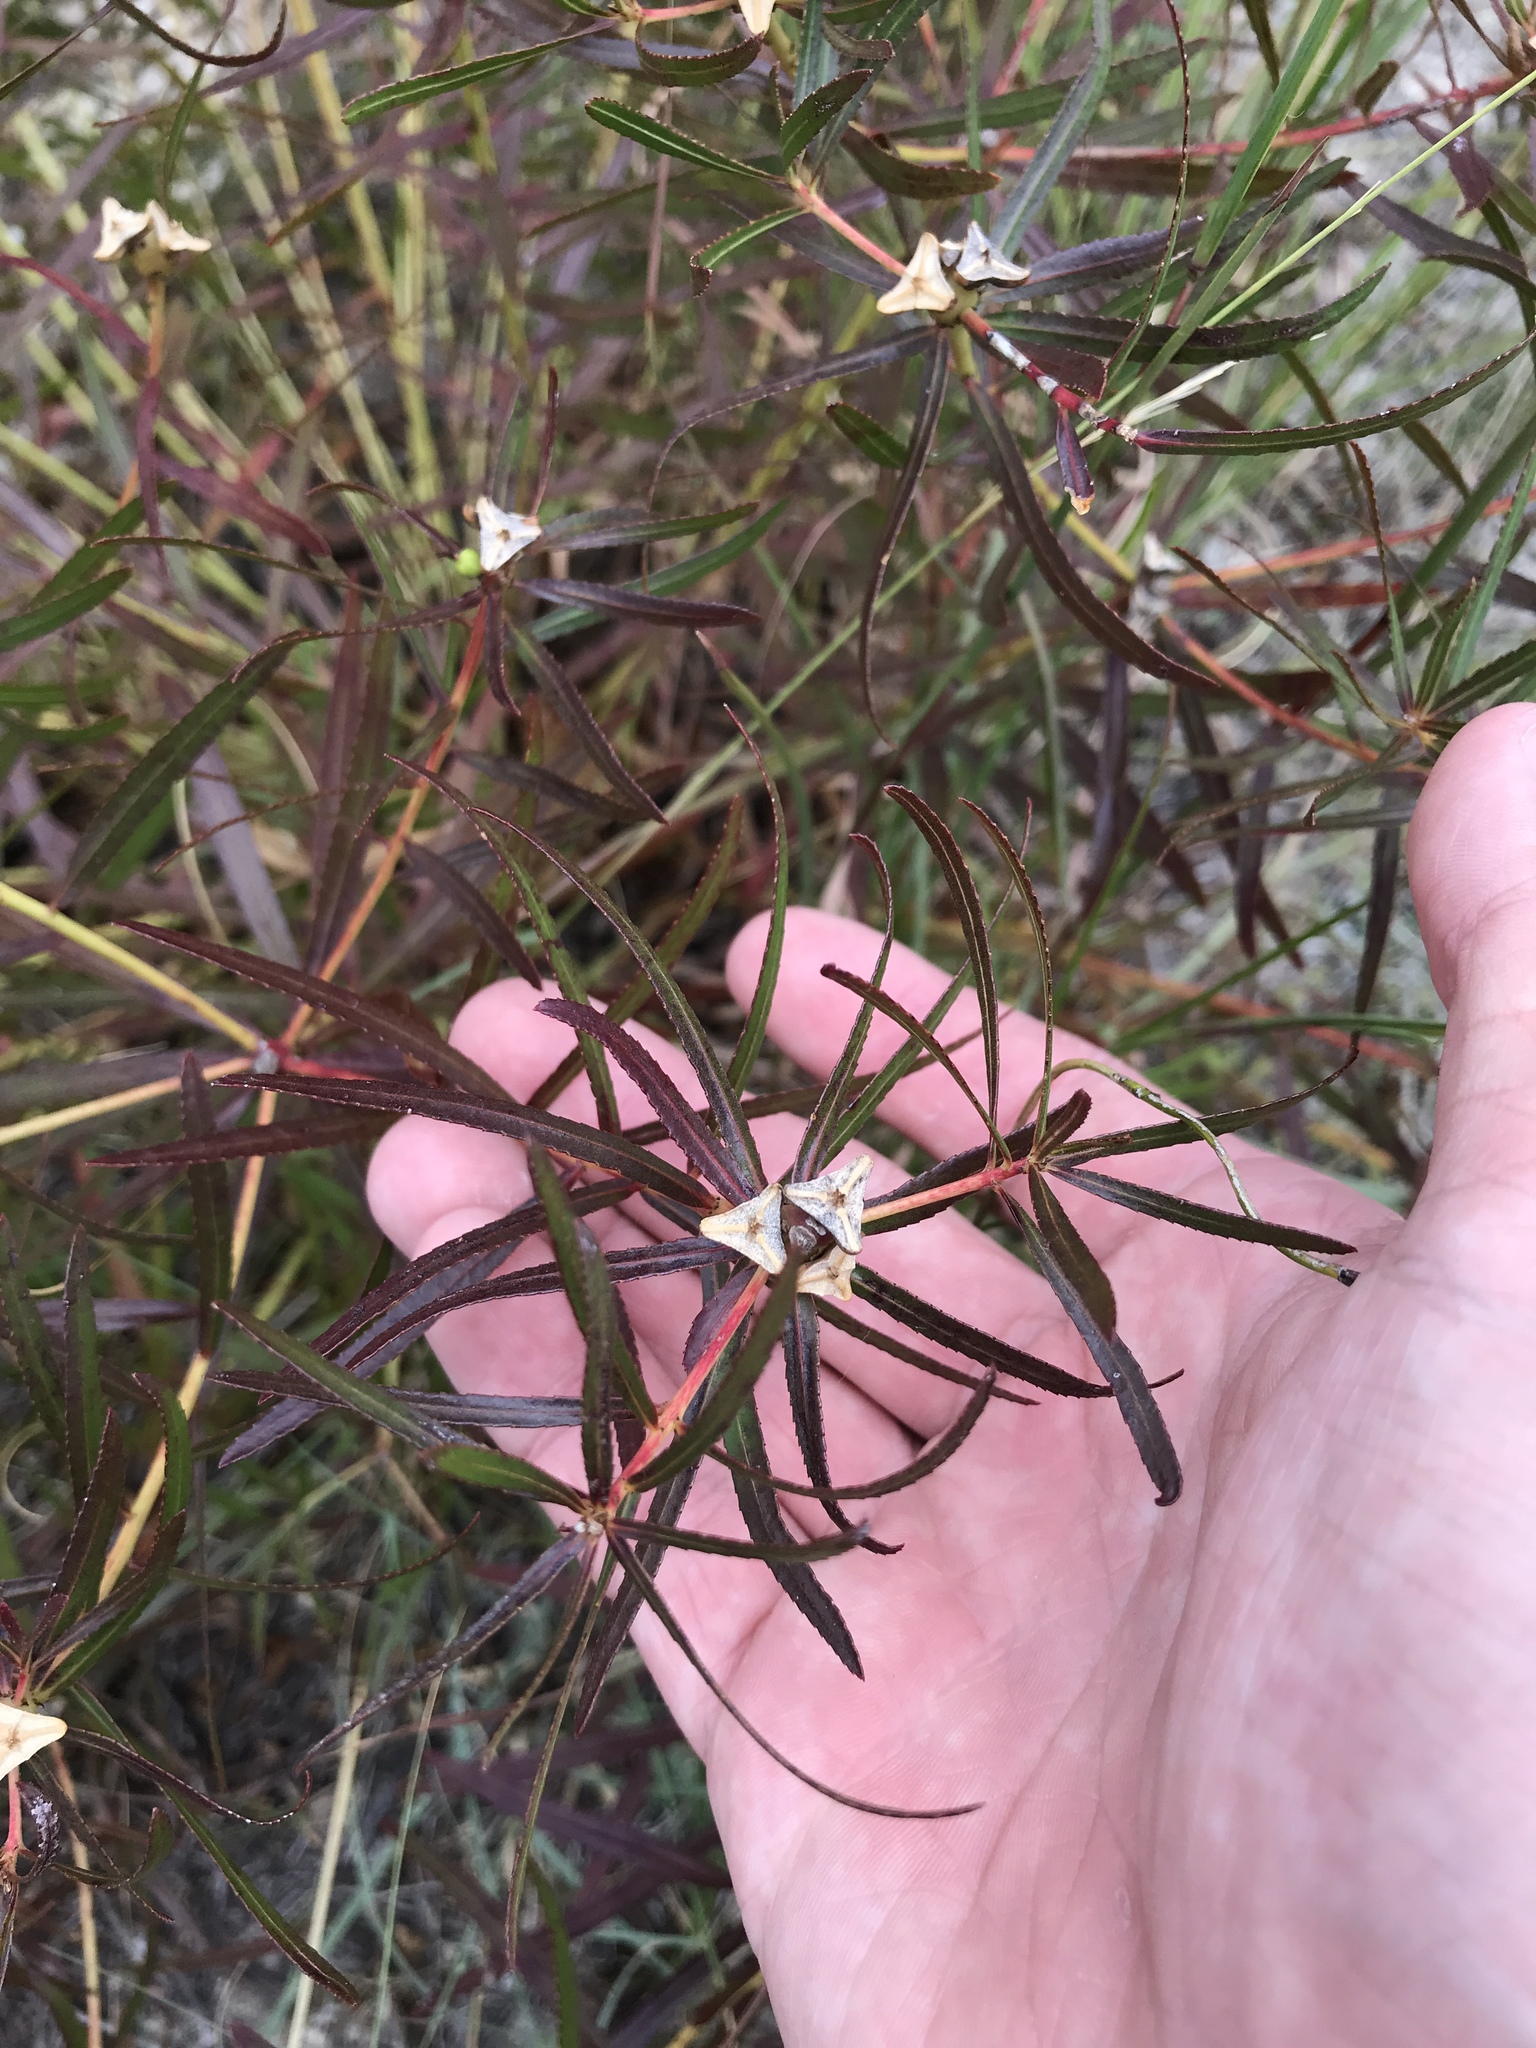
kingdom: Plantae
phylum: Tracheophyta
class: Magnoliopsida
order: Malpighiales
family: Euphorbiaceae
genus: Stillingia
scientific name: Stillingia texana
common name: Texas stillingia
